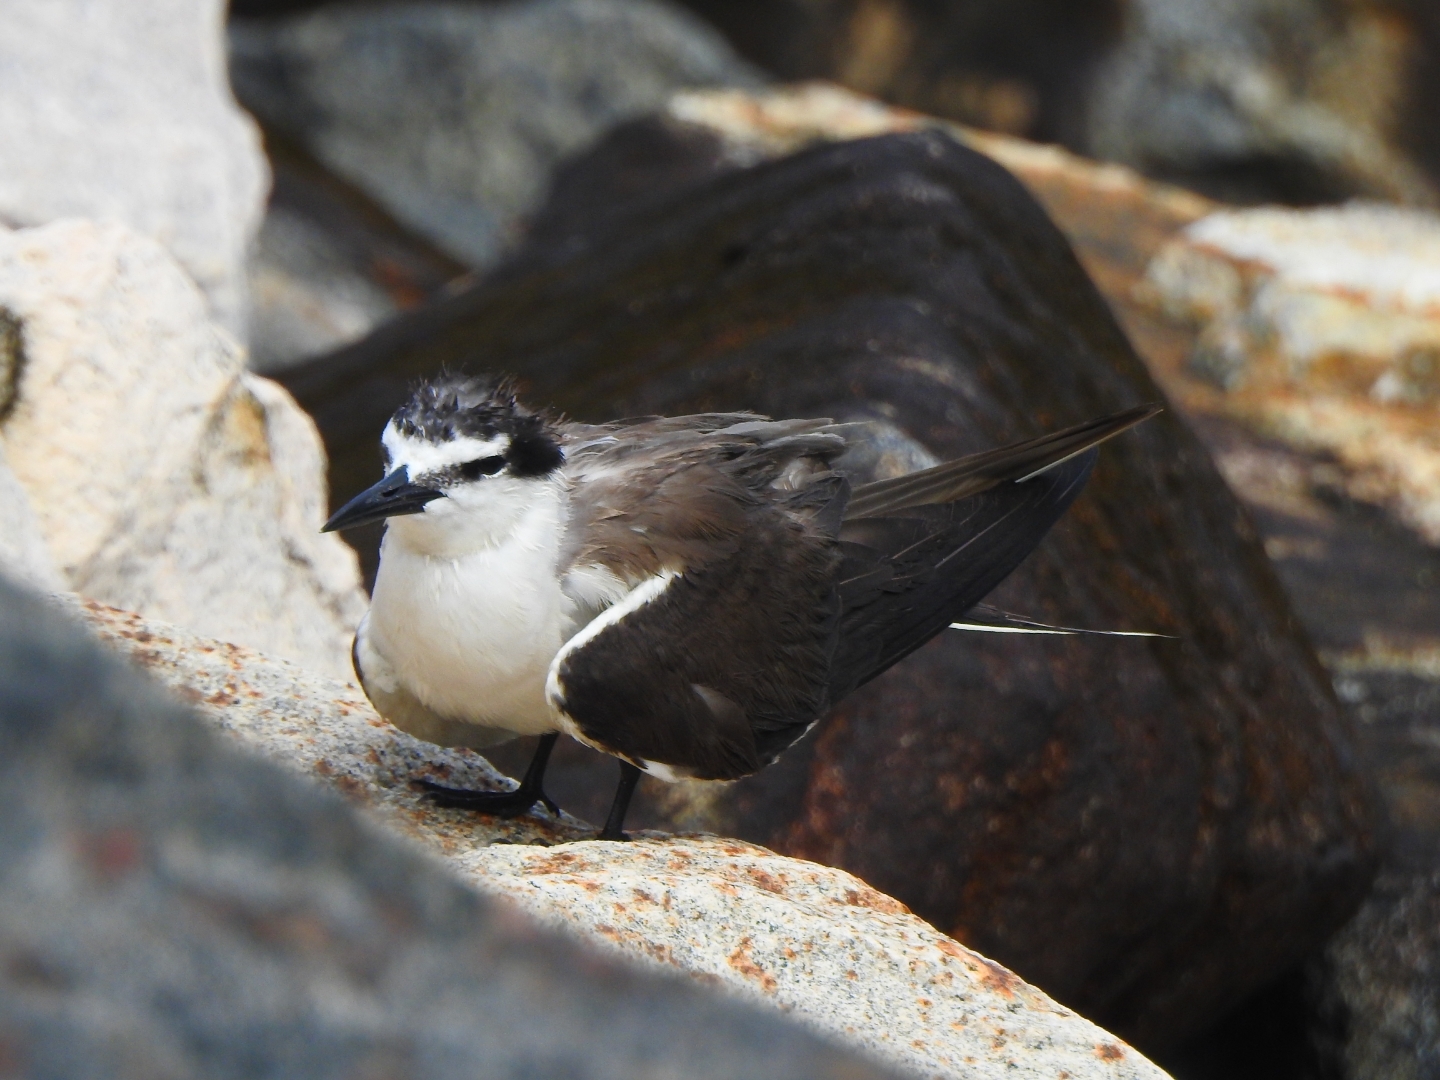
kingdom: Animalia
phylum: Chordata
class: Aves
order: Charadriiformes
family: Laridae
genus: Onychoprion
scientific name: Onychoprion anaethetus
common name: Bridled tern
